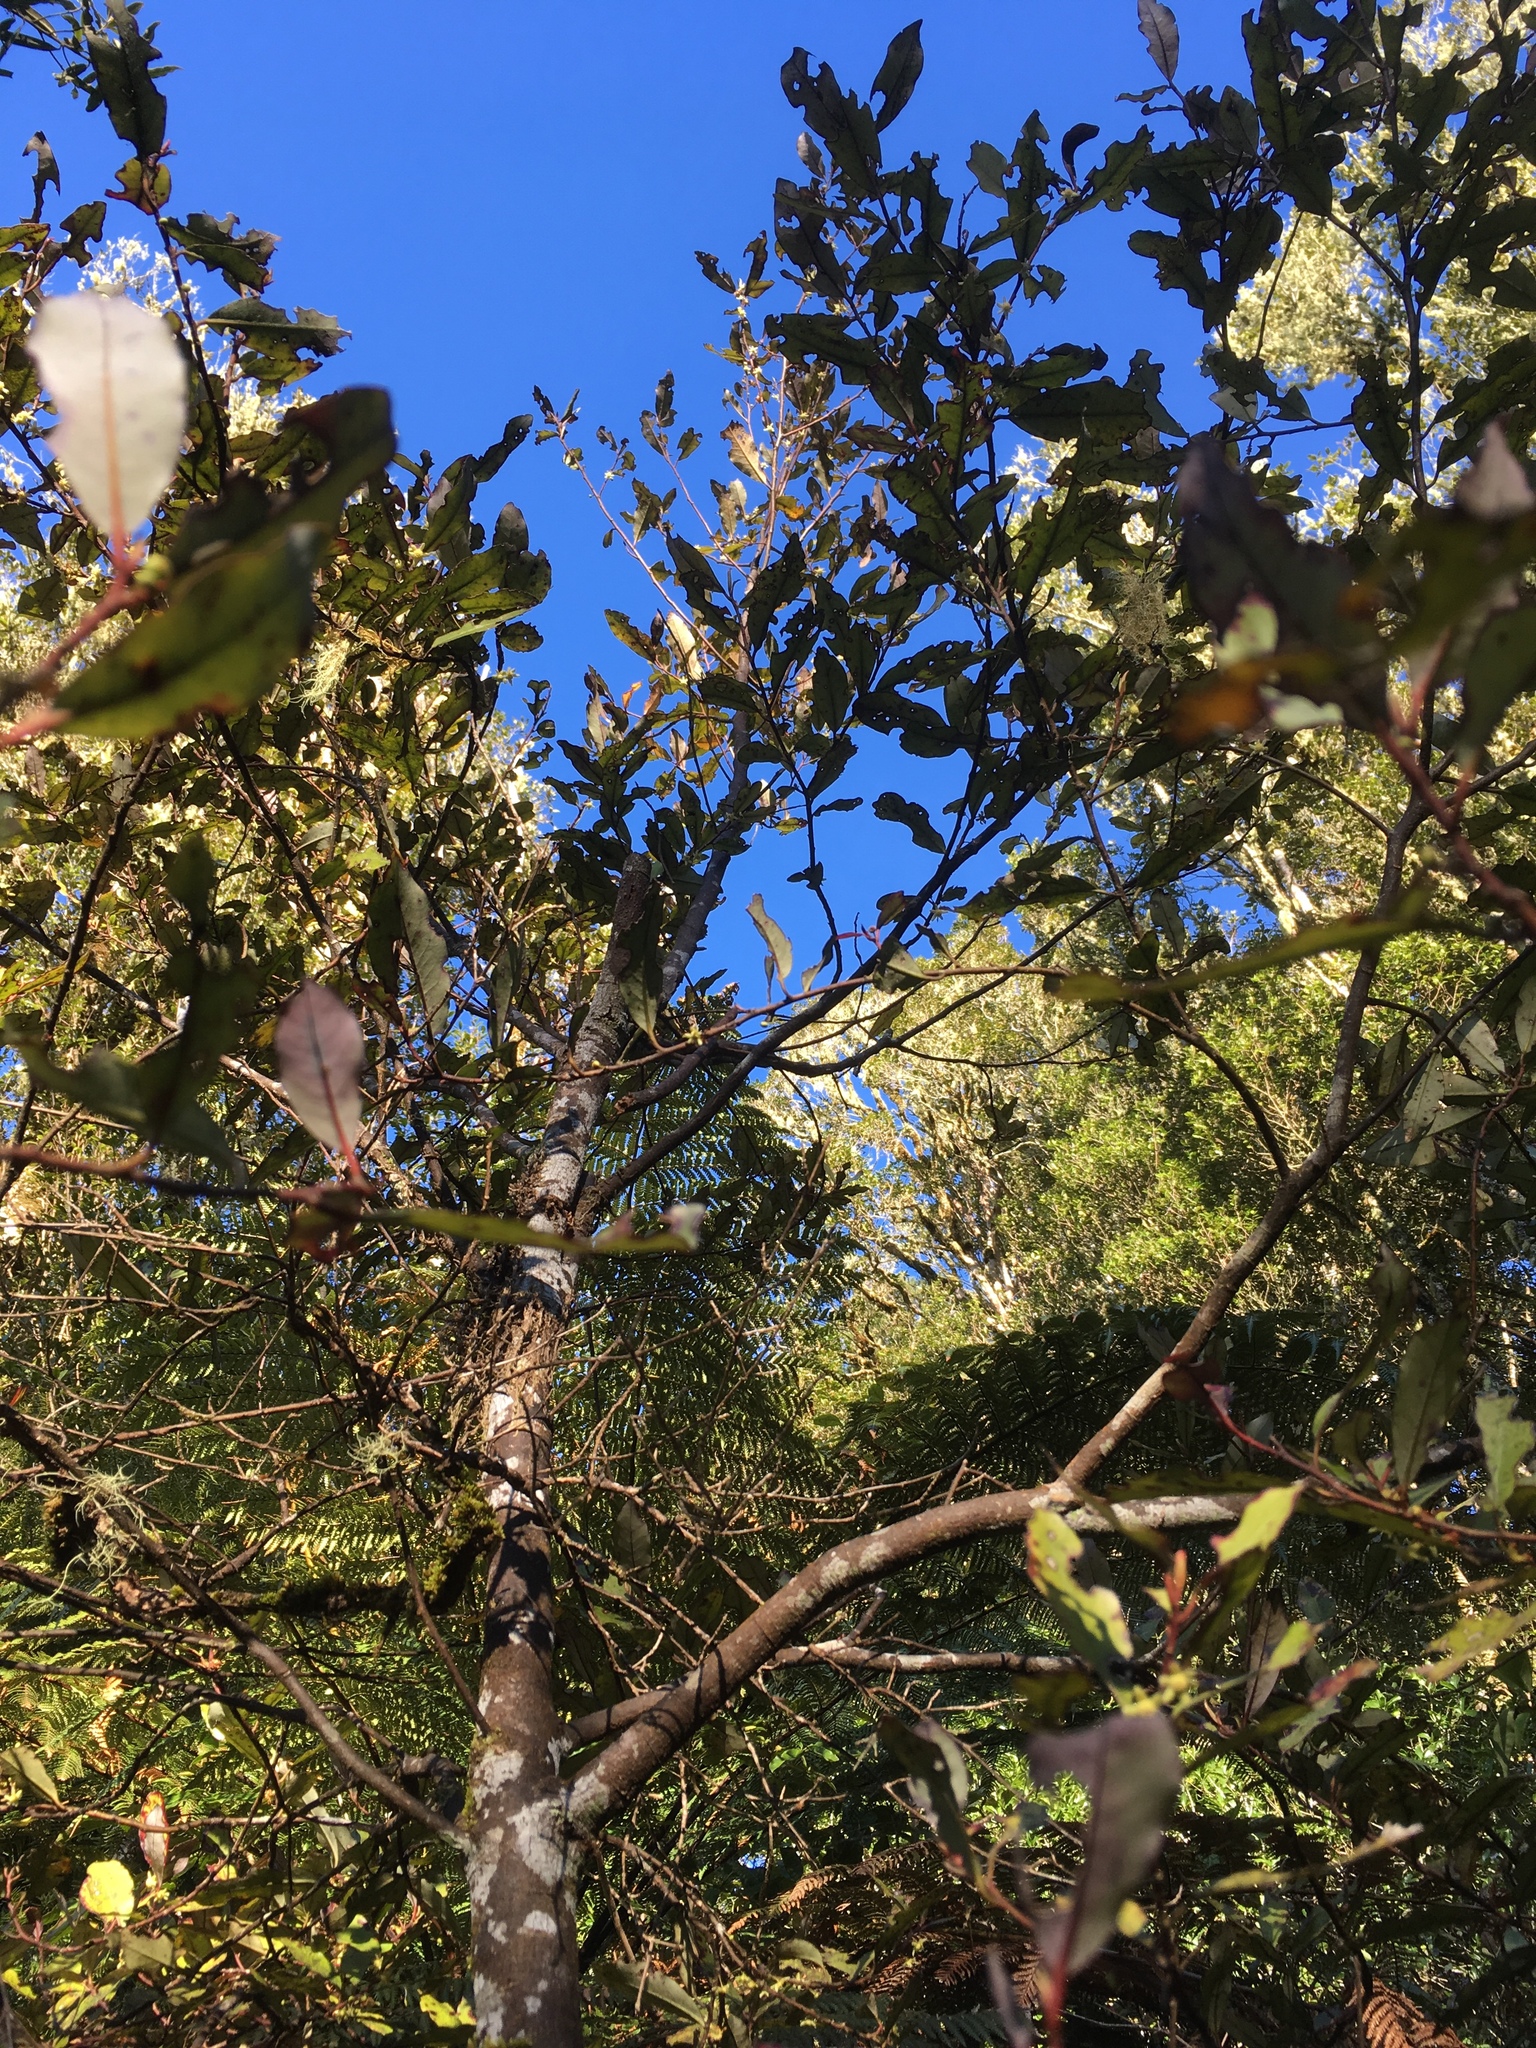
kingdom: Plantae
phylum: Tracheophyta
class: Magnoliopsida
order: Canellales
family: Winteraceae
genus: Pseudowintera
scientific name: Pseudowintera colorata
